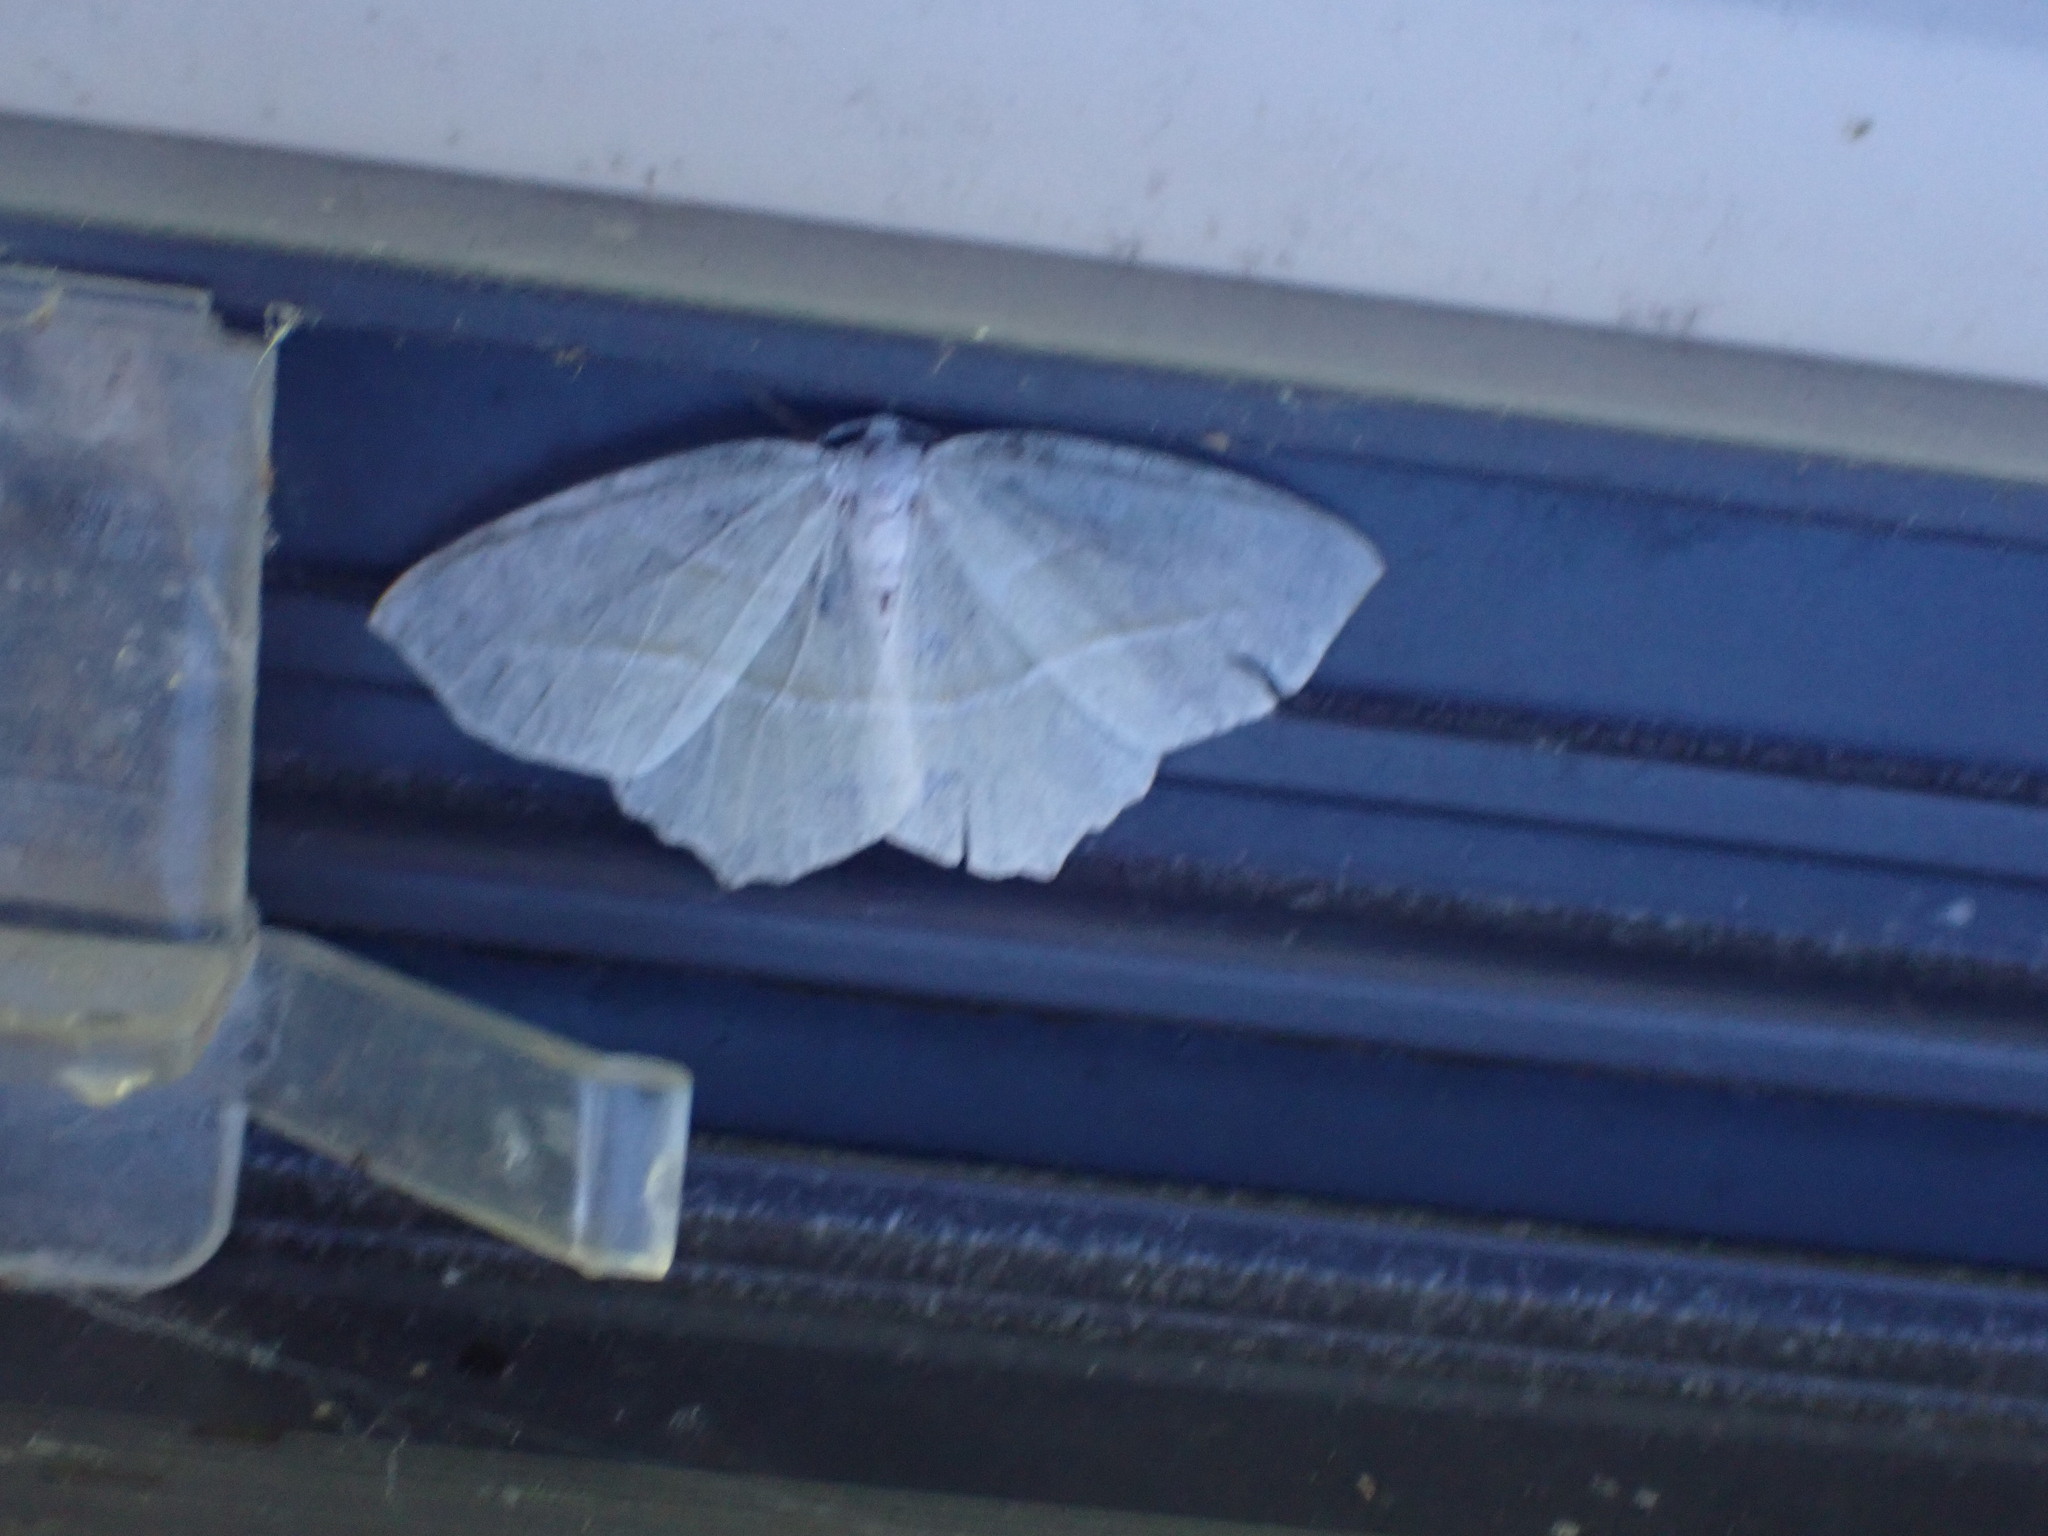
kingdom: Animalia
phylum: Arthropoda
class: Insecta
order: Lepidoptera
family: Geometridae
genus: Campaea
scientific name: Campaea perlata
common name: Fringed looper
